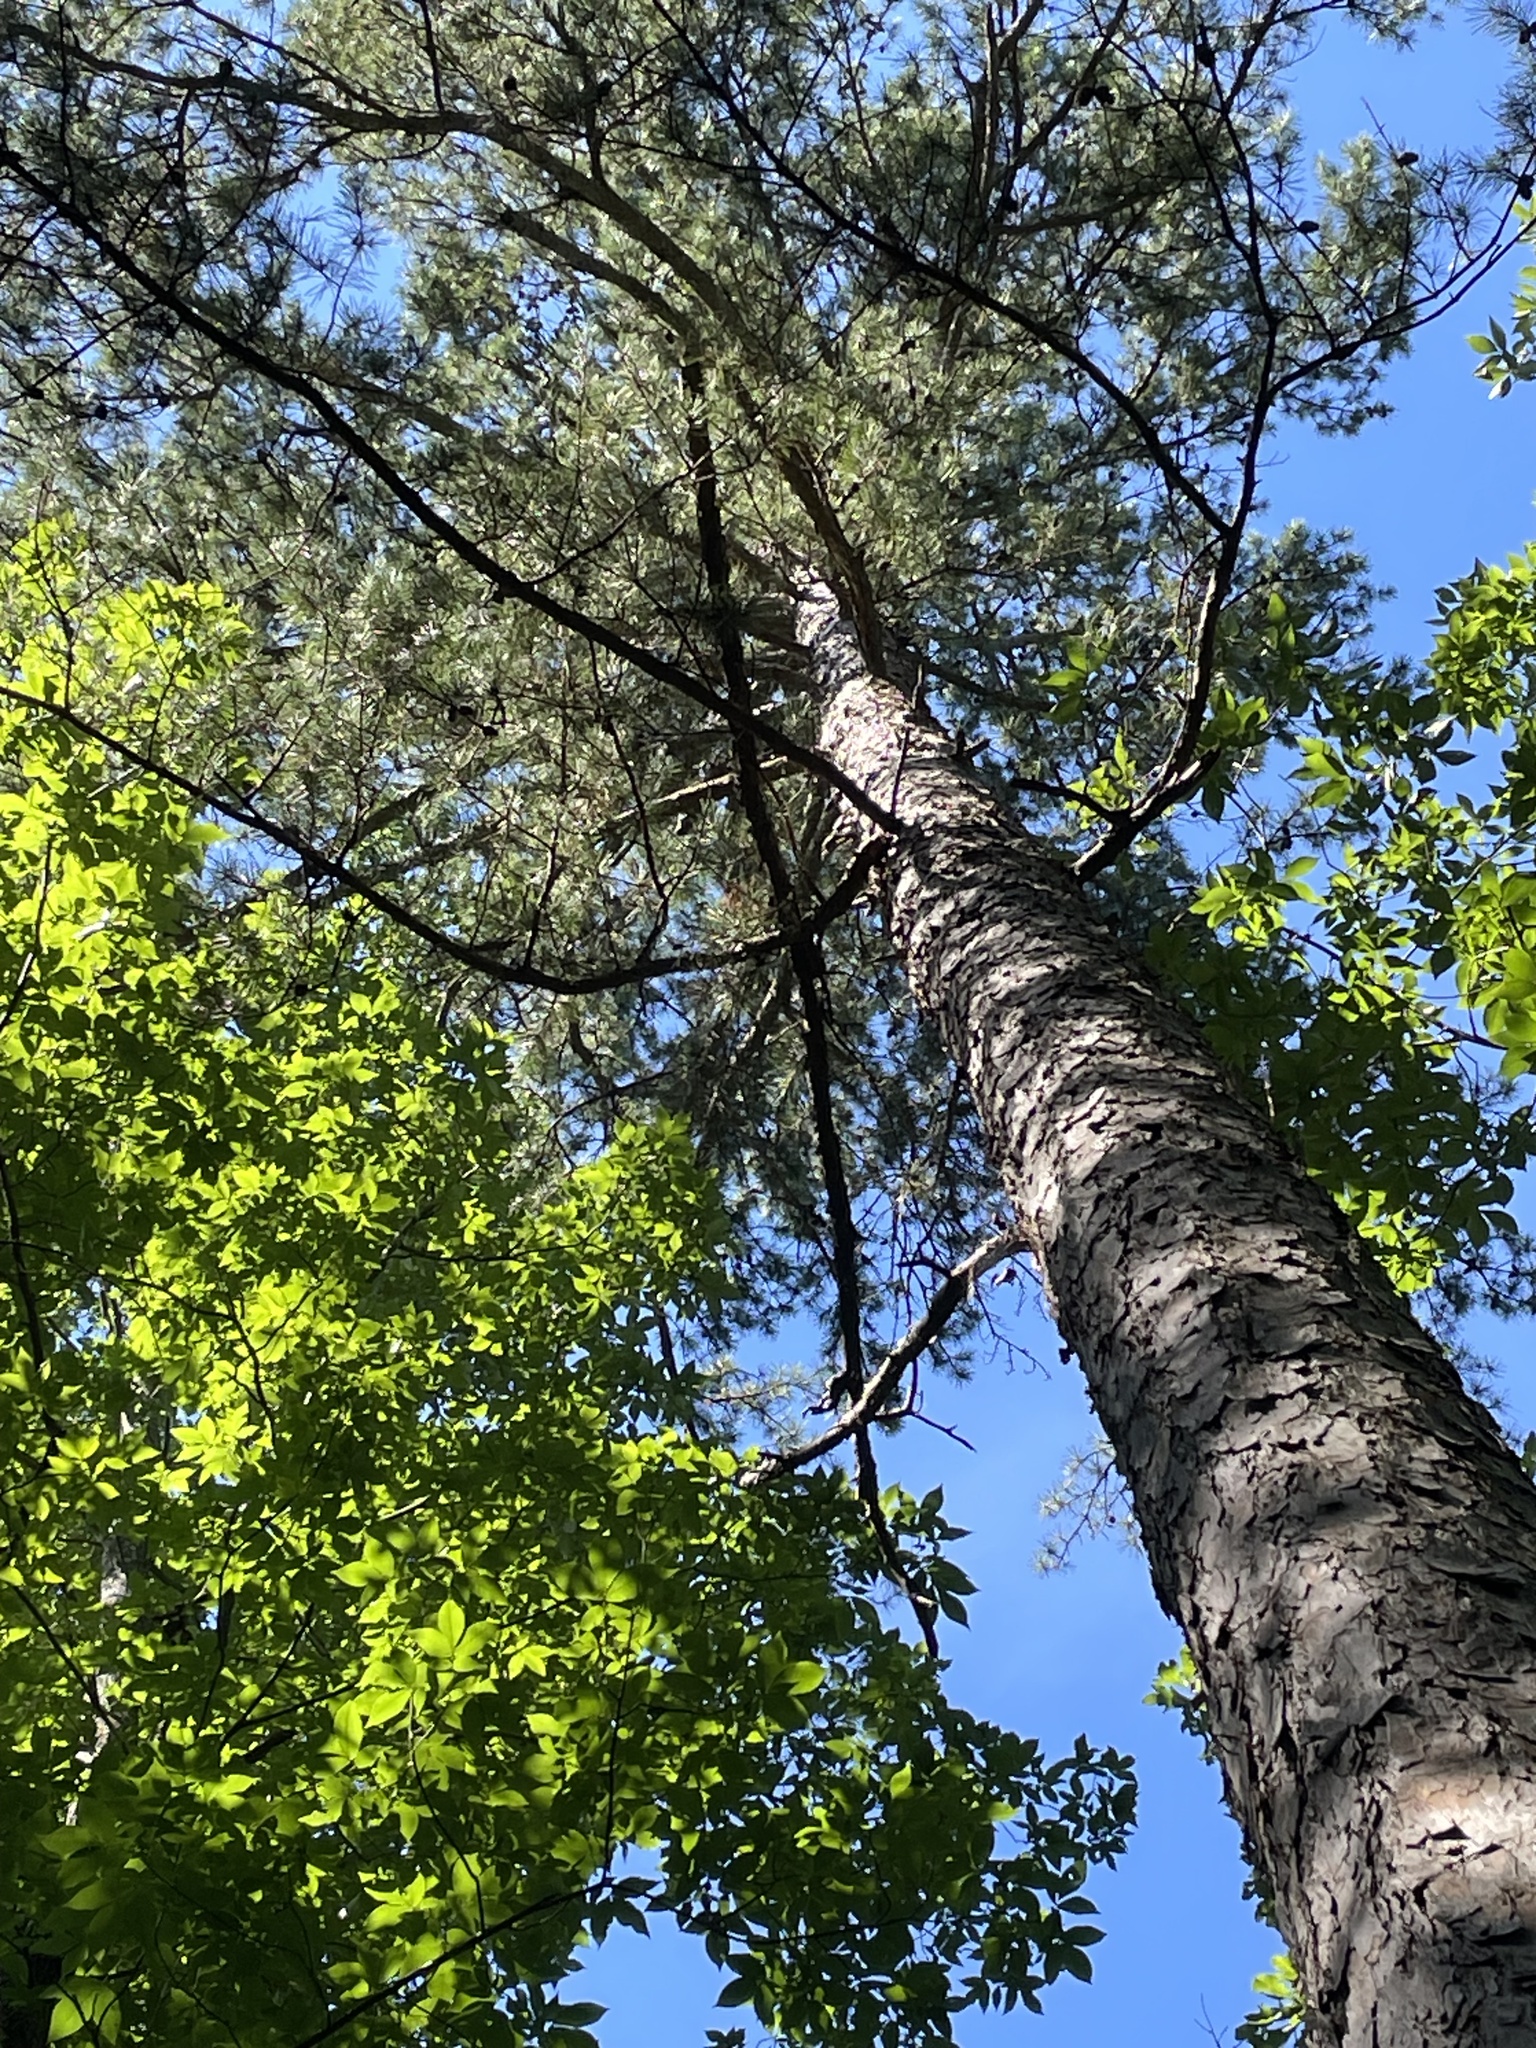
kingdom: Plantae
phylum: Tracheophyta
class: Pinopsida
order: Pinales
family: Pinaceae
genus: Pinus
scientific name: Pinus echinata
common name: Shortleaf pine
